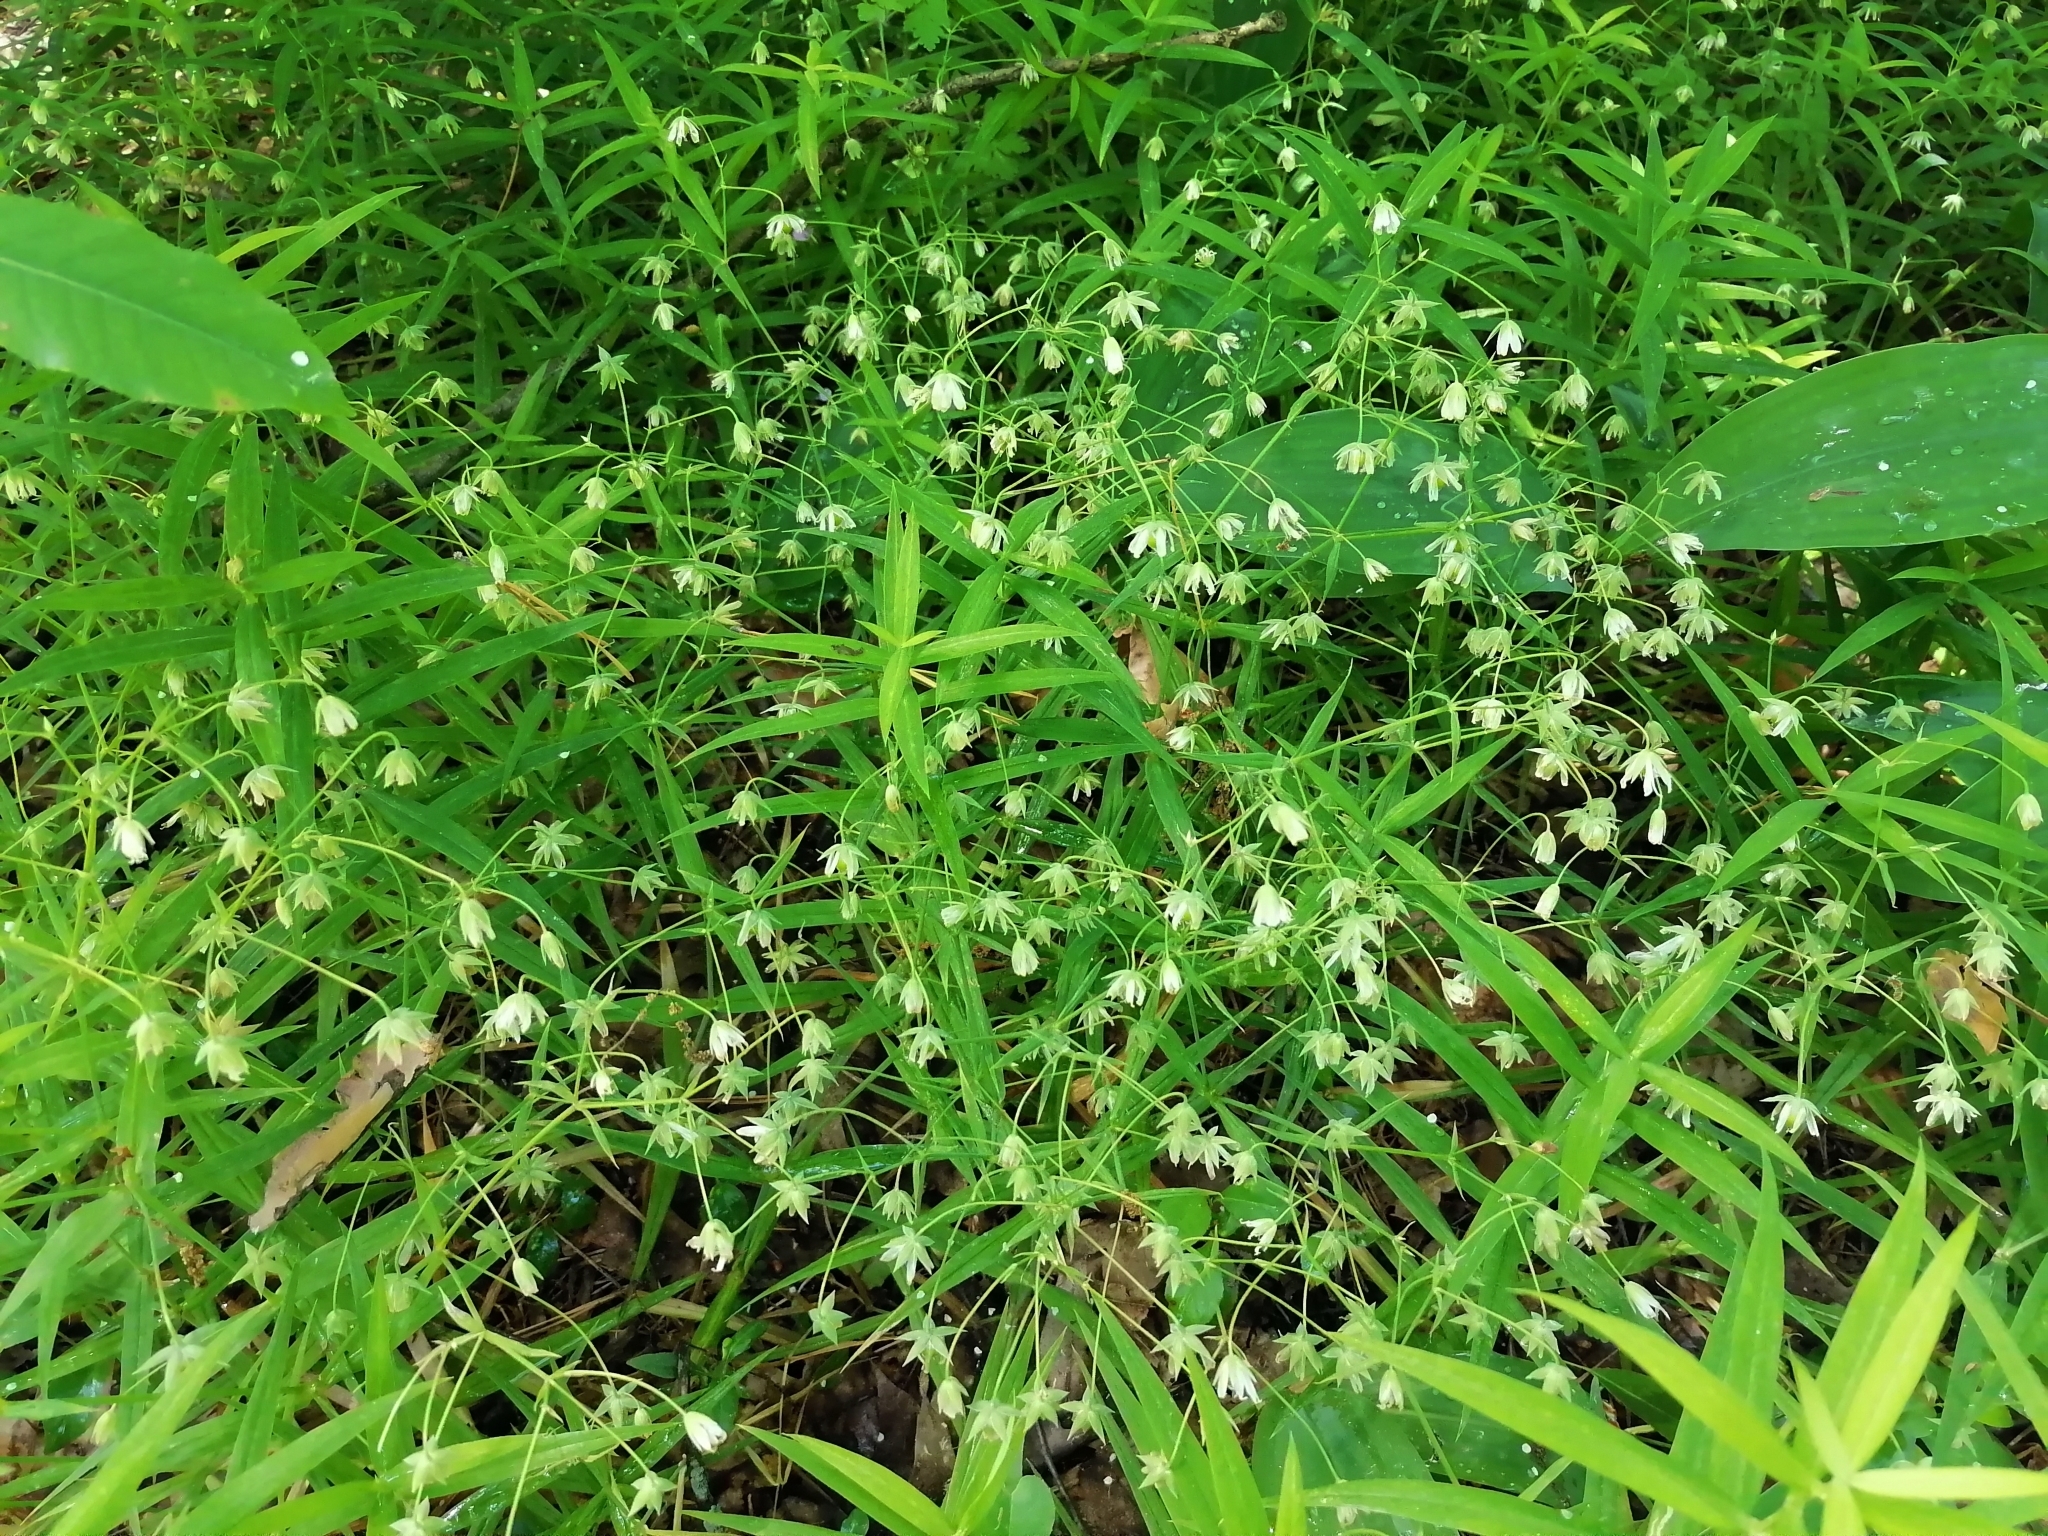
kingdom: Plantae
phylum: Tracheophyta
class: Magnoliopsida
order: Caryophyllales
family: Caryophyllaceae
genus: Rabelera
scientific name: Rabelera holostea
